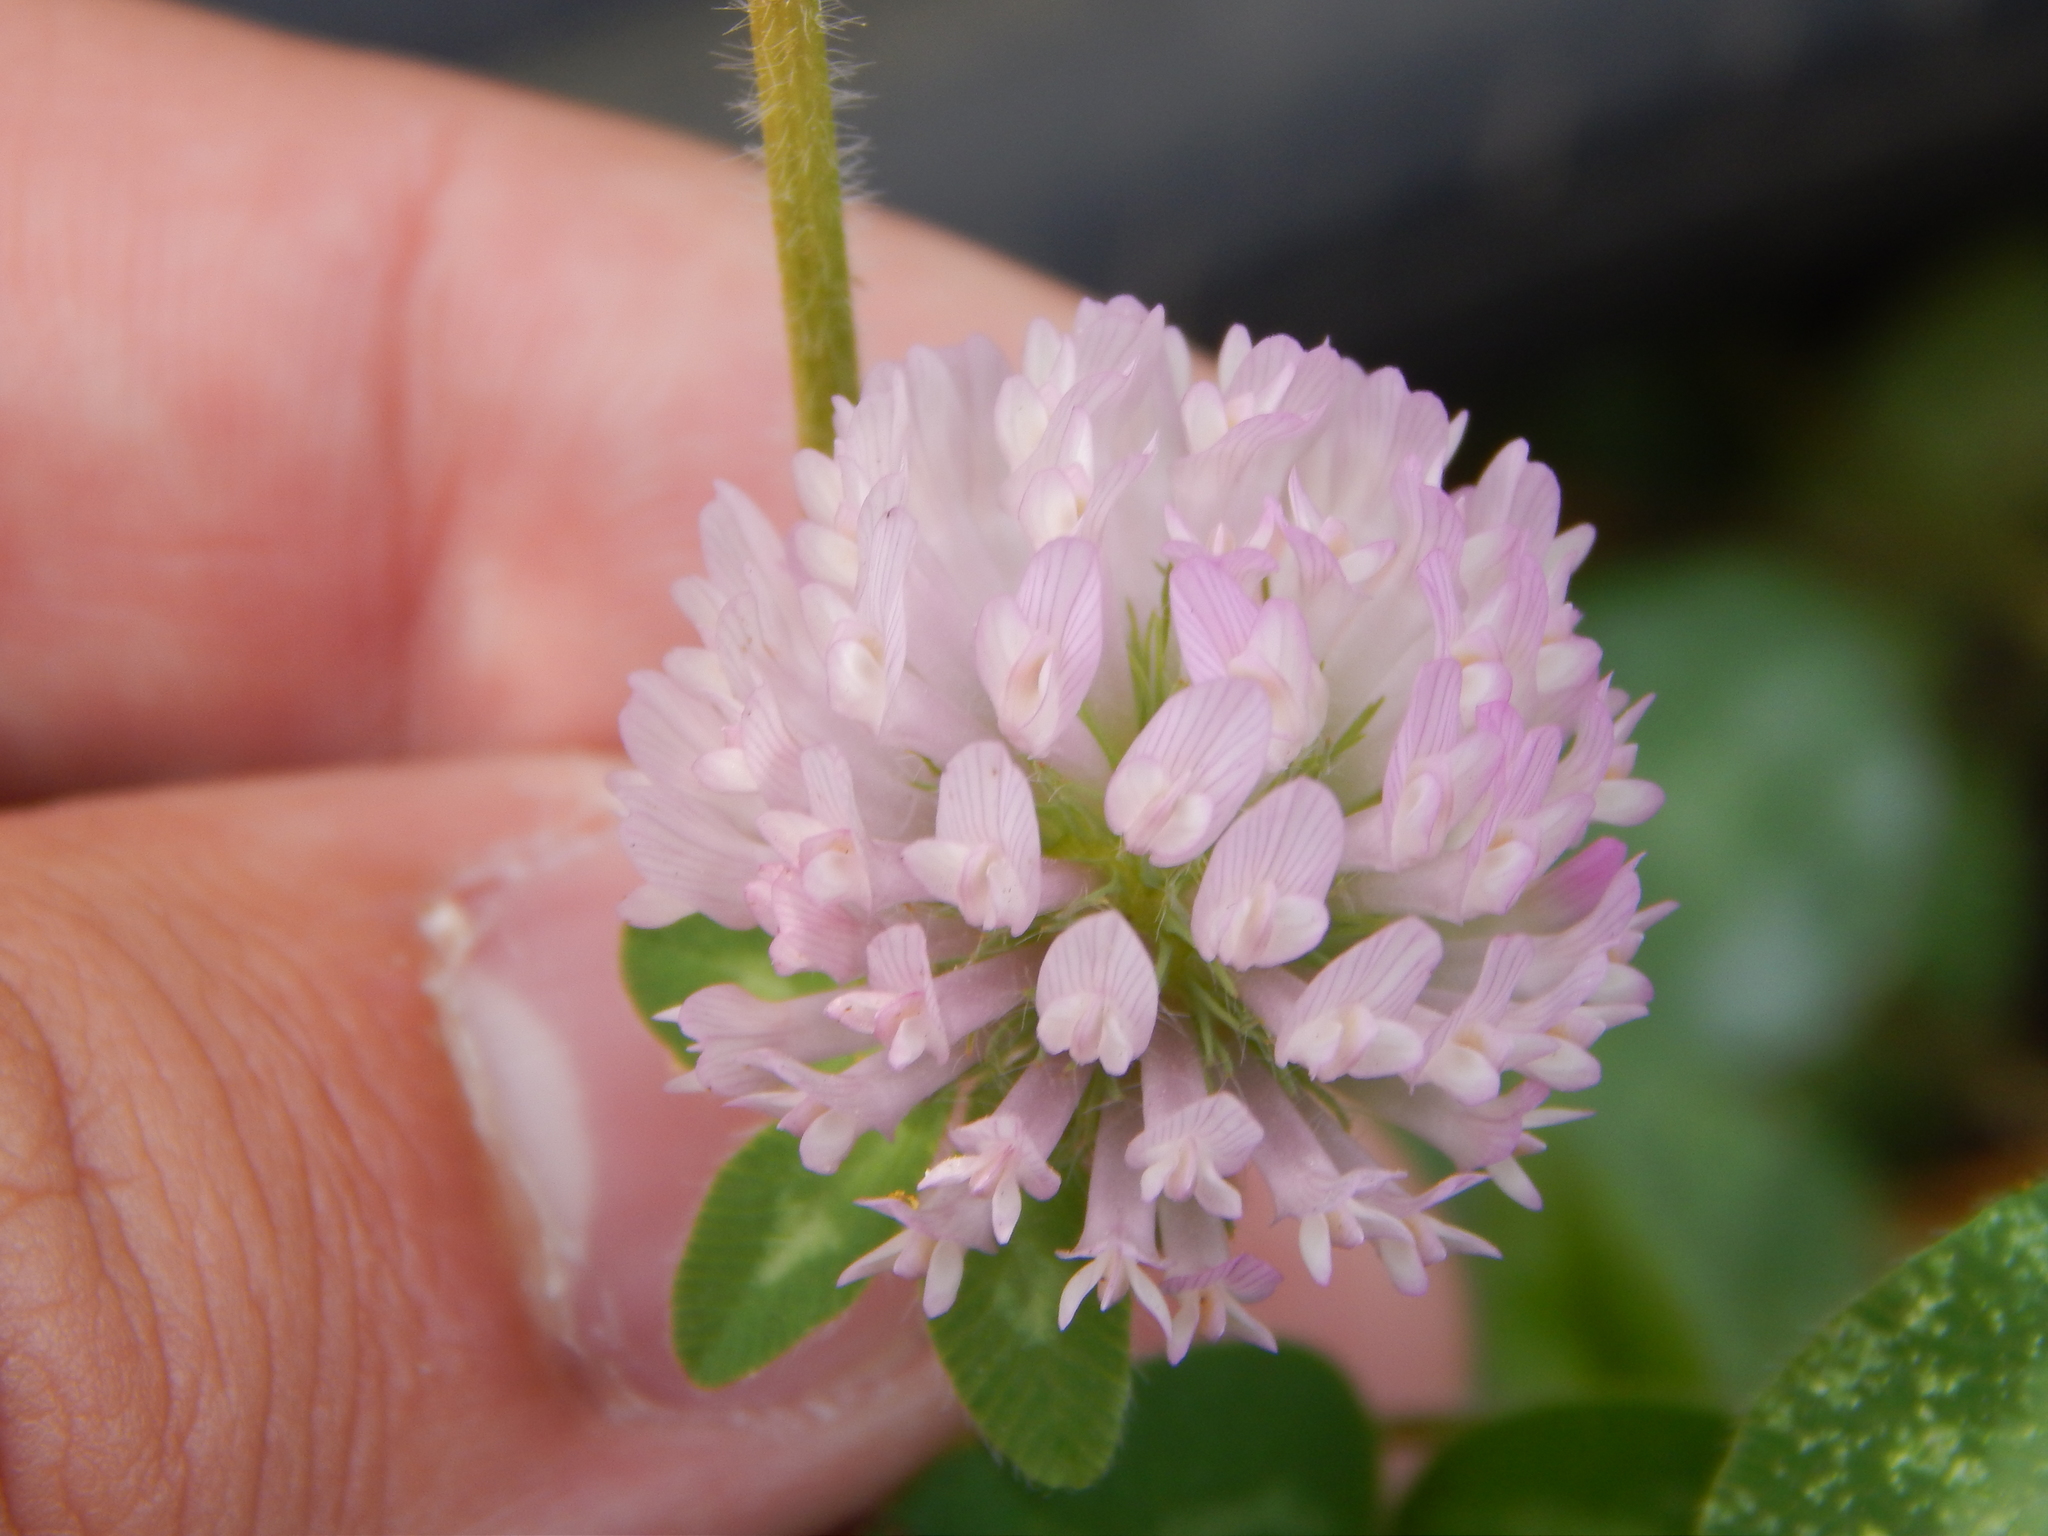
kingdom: Plantae
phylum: Tracheophyta
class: Magnoliopsida
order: Fabales
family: Fabaceae
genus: Trifolium
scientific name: Trifolium pratense
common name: Red clover
